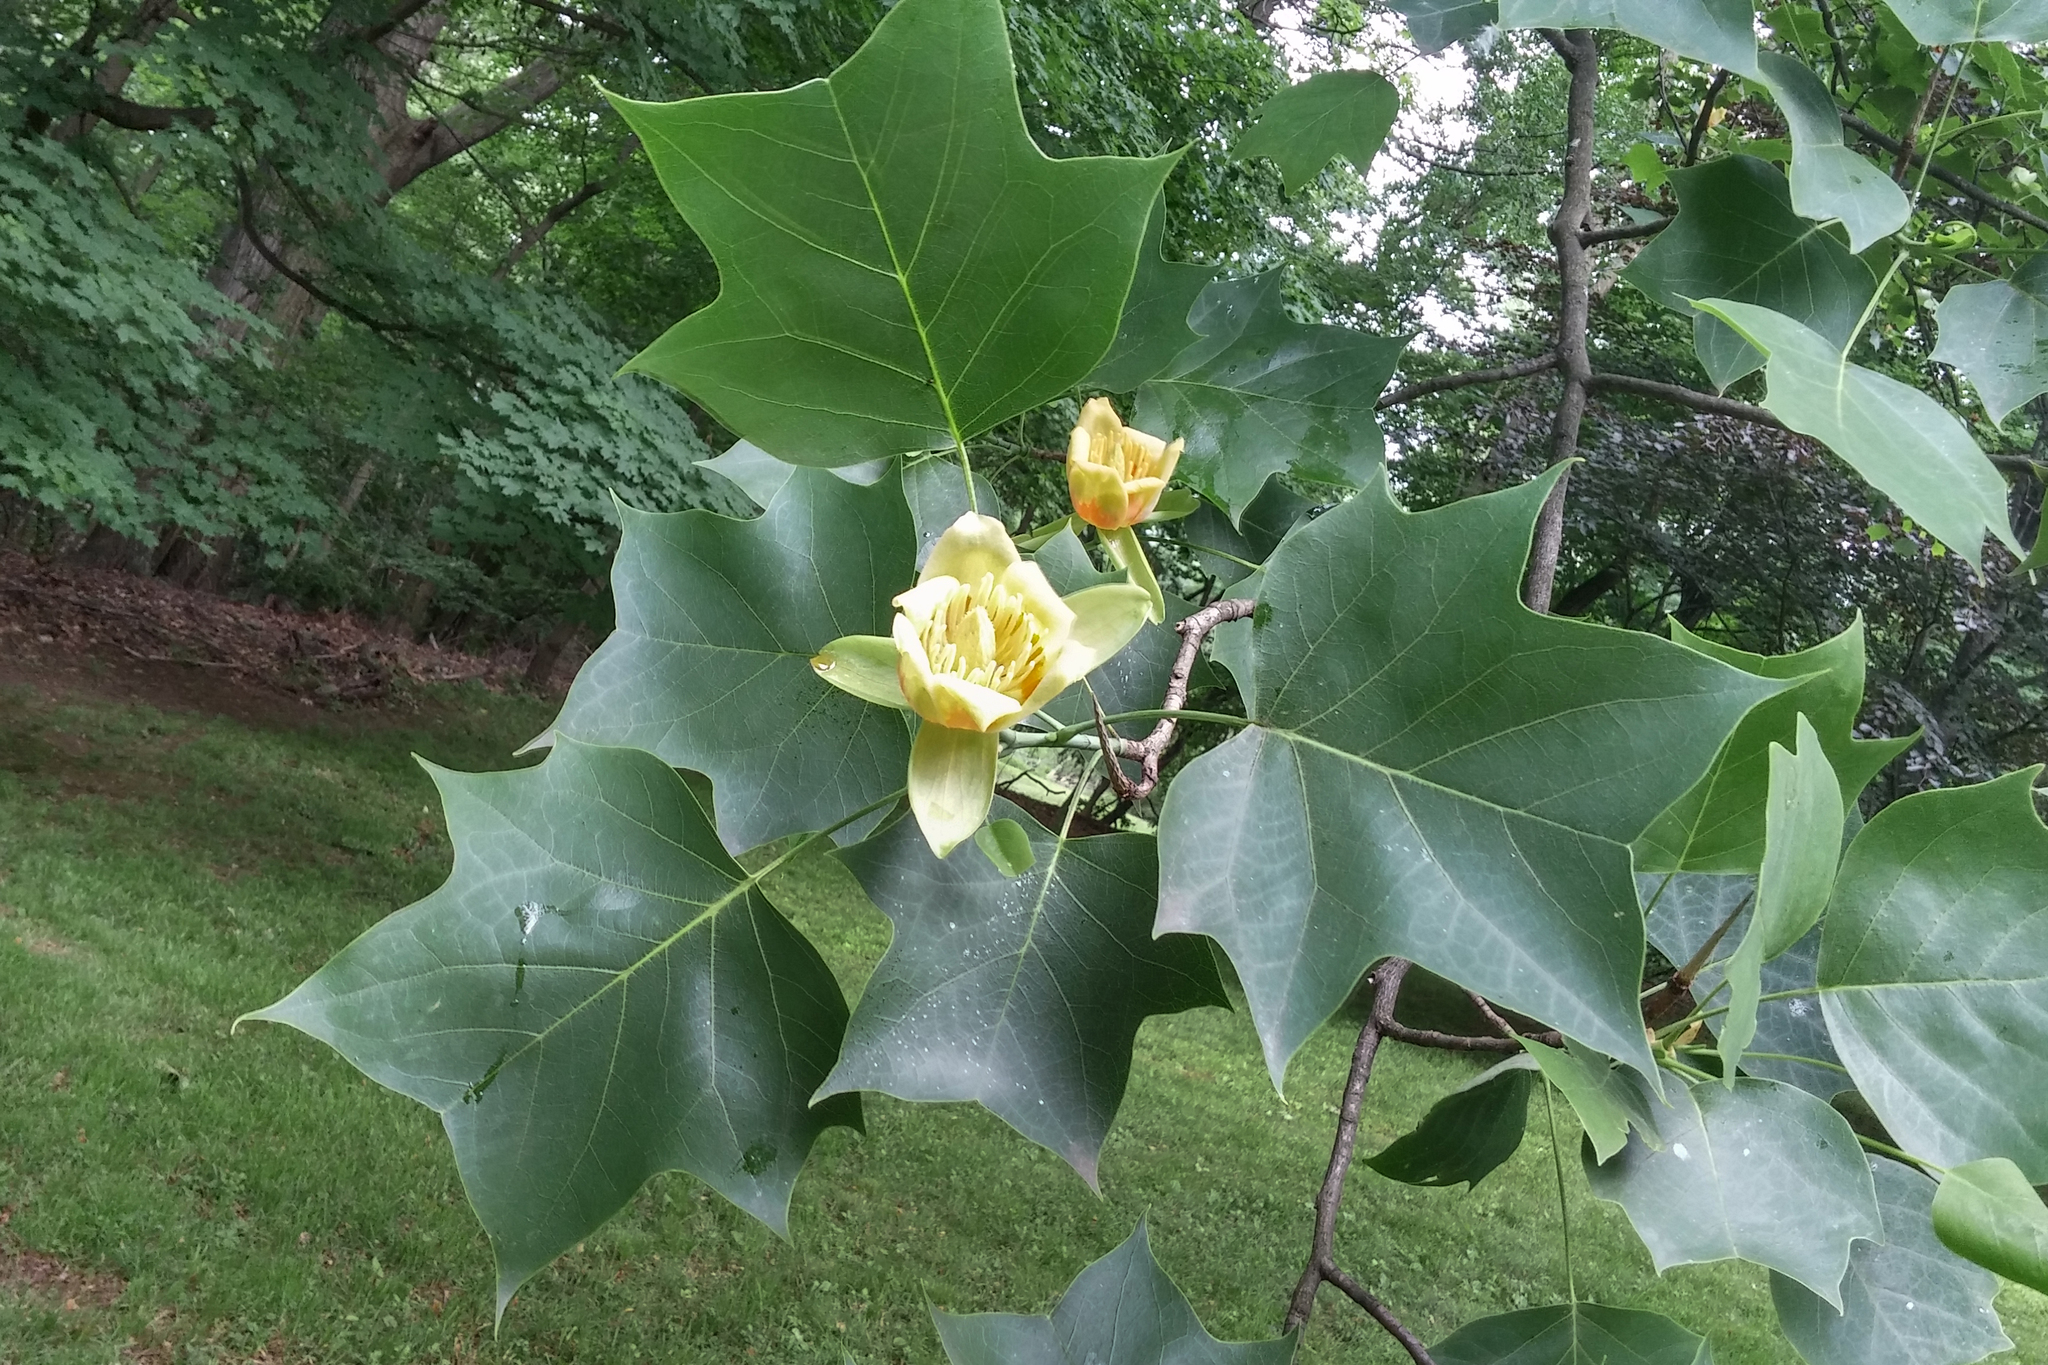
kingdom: Plantae
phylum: Tracheophyta
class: Magnoliopsida
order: Magnoliales
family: Magnoliaceae
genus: Liriodendron
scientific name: Liriodendron tulipifera
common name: Tulip tree
